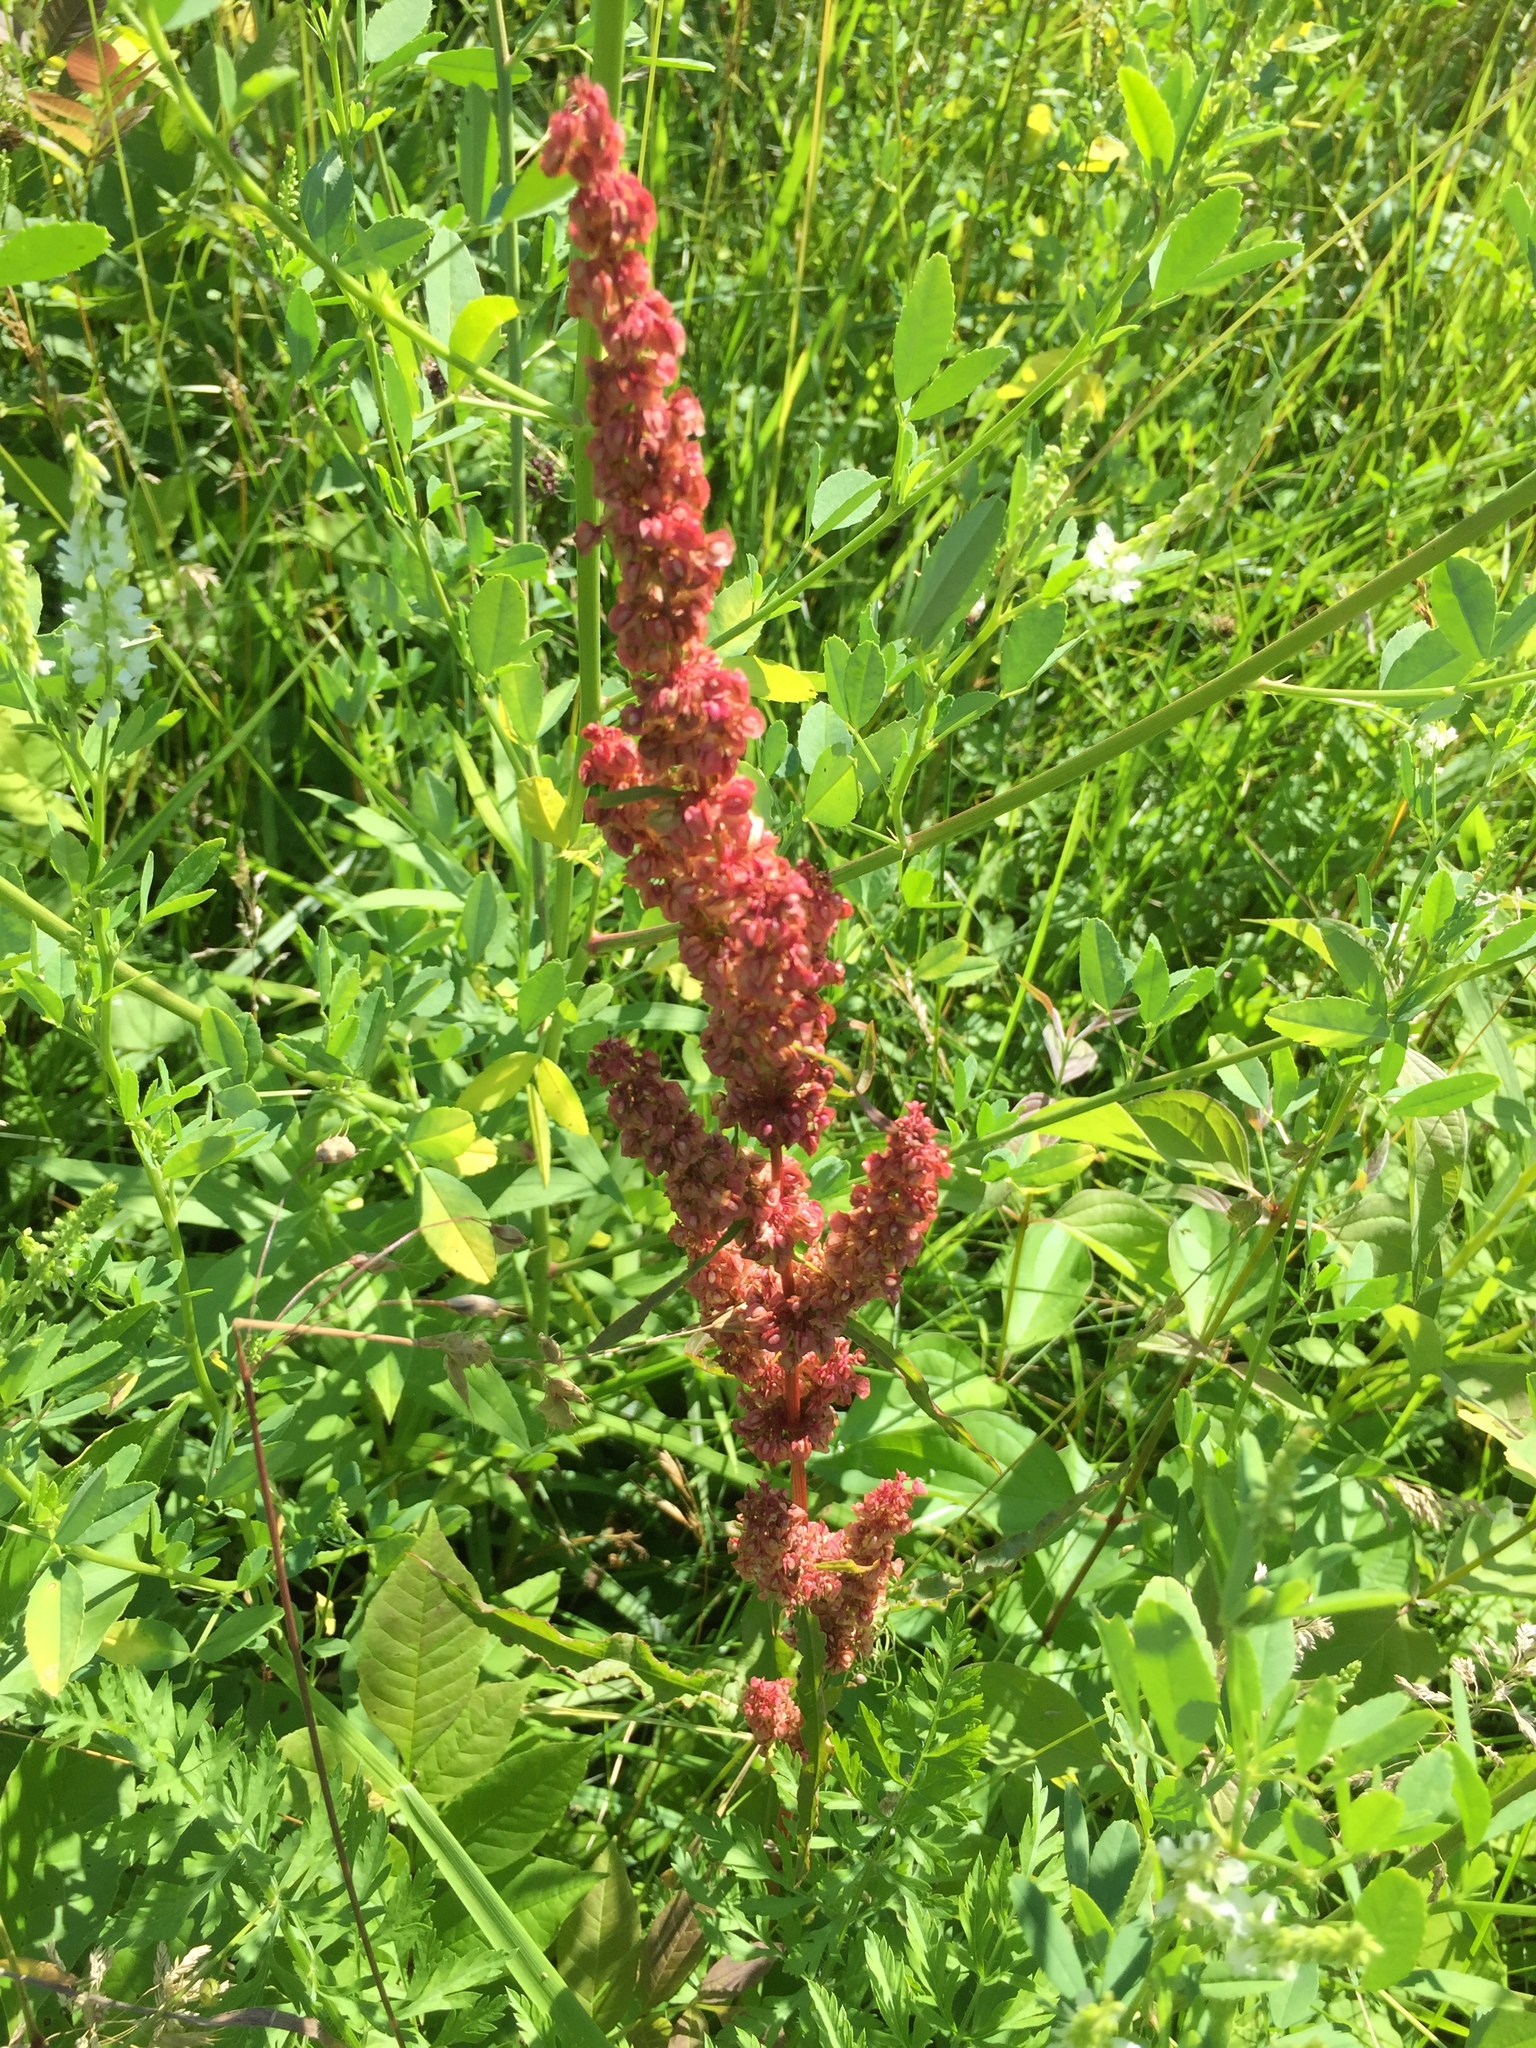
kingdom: Plantae
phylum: Tracheophyta
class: Magnoliopsida
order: Caryophyllales
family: Polygonaceae
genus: Rumex
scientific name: Rumex crispus
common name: Curled dock
